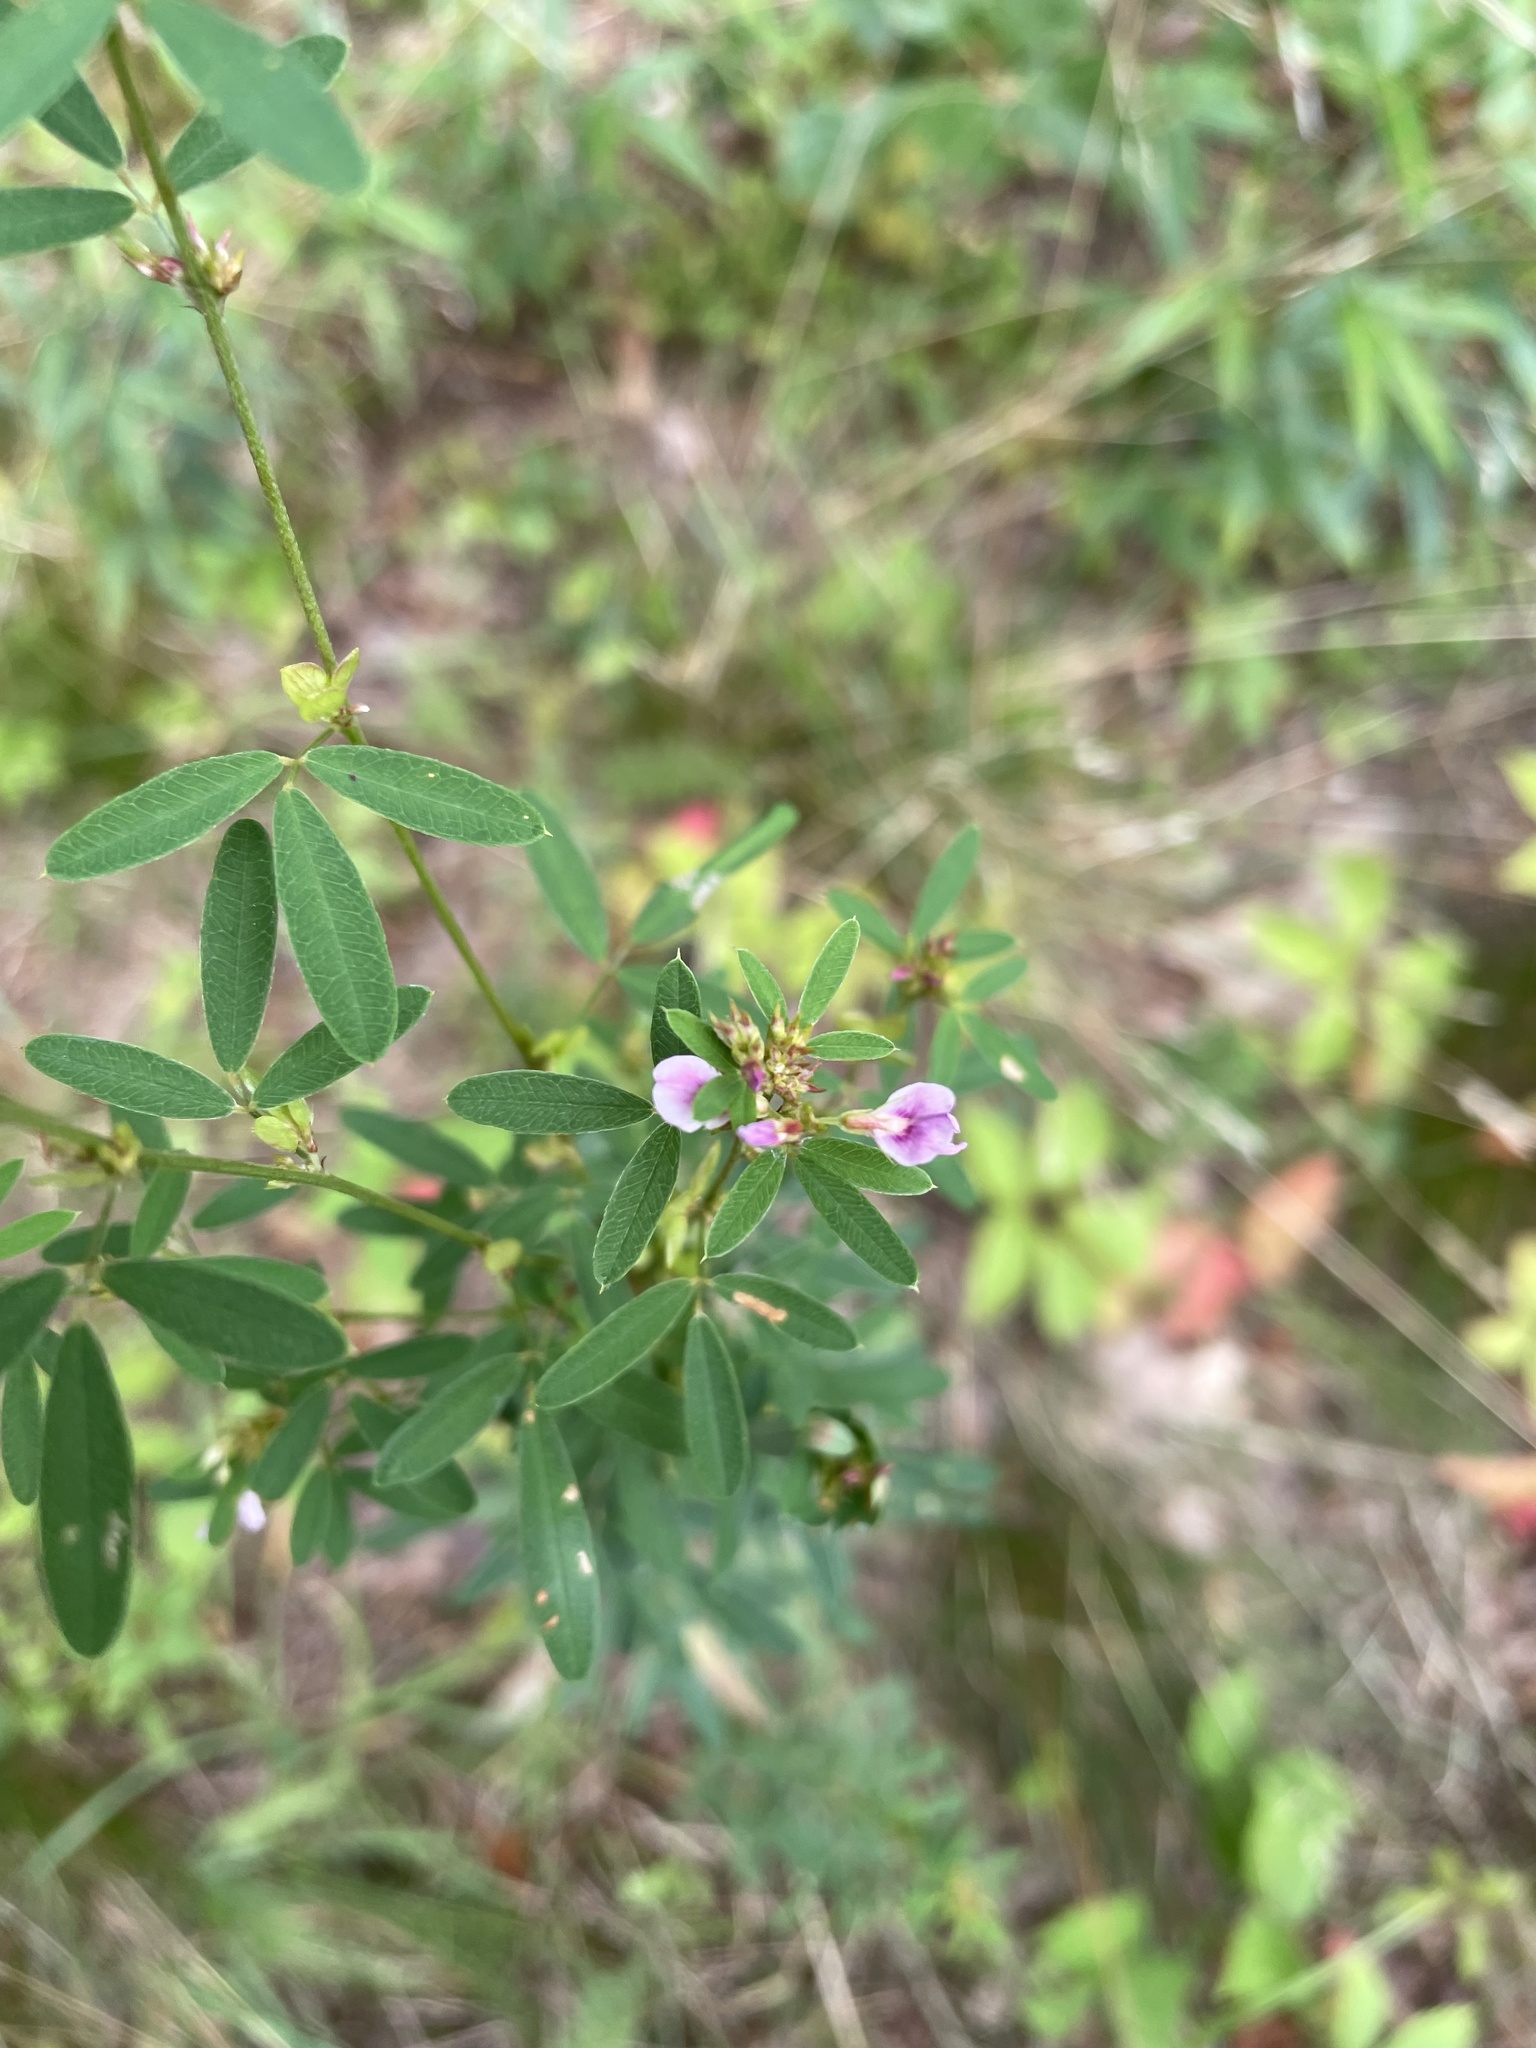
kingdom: Plantae
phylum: Tracheophyta
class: Magnoliopsida
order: Fabales
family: Fabaceae
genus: Lespedeza
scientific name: Lespedeza virginica
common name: Slender bush-clover
